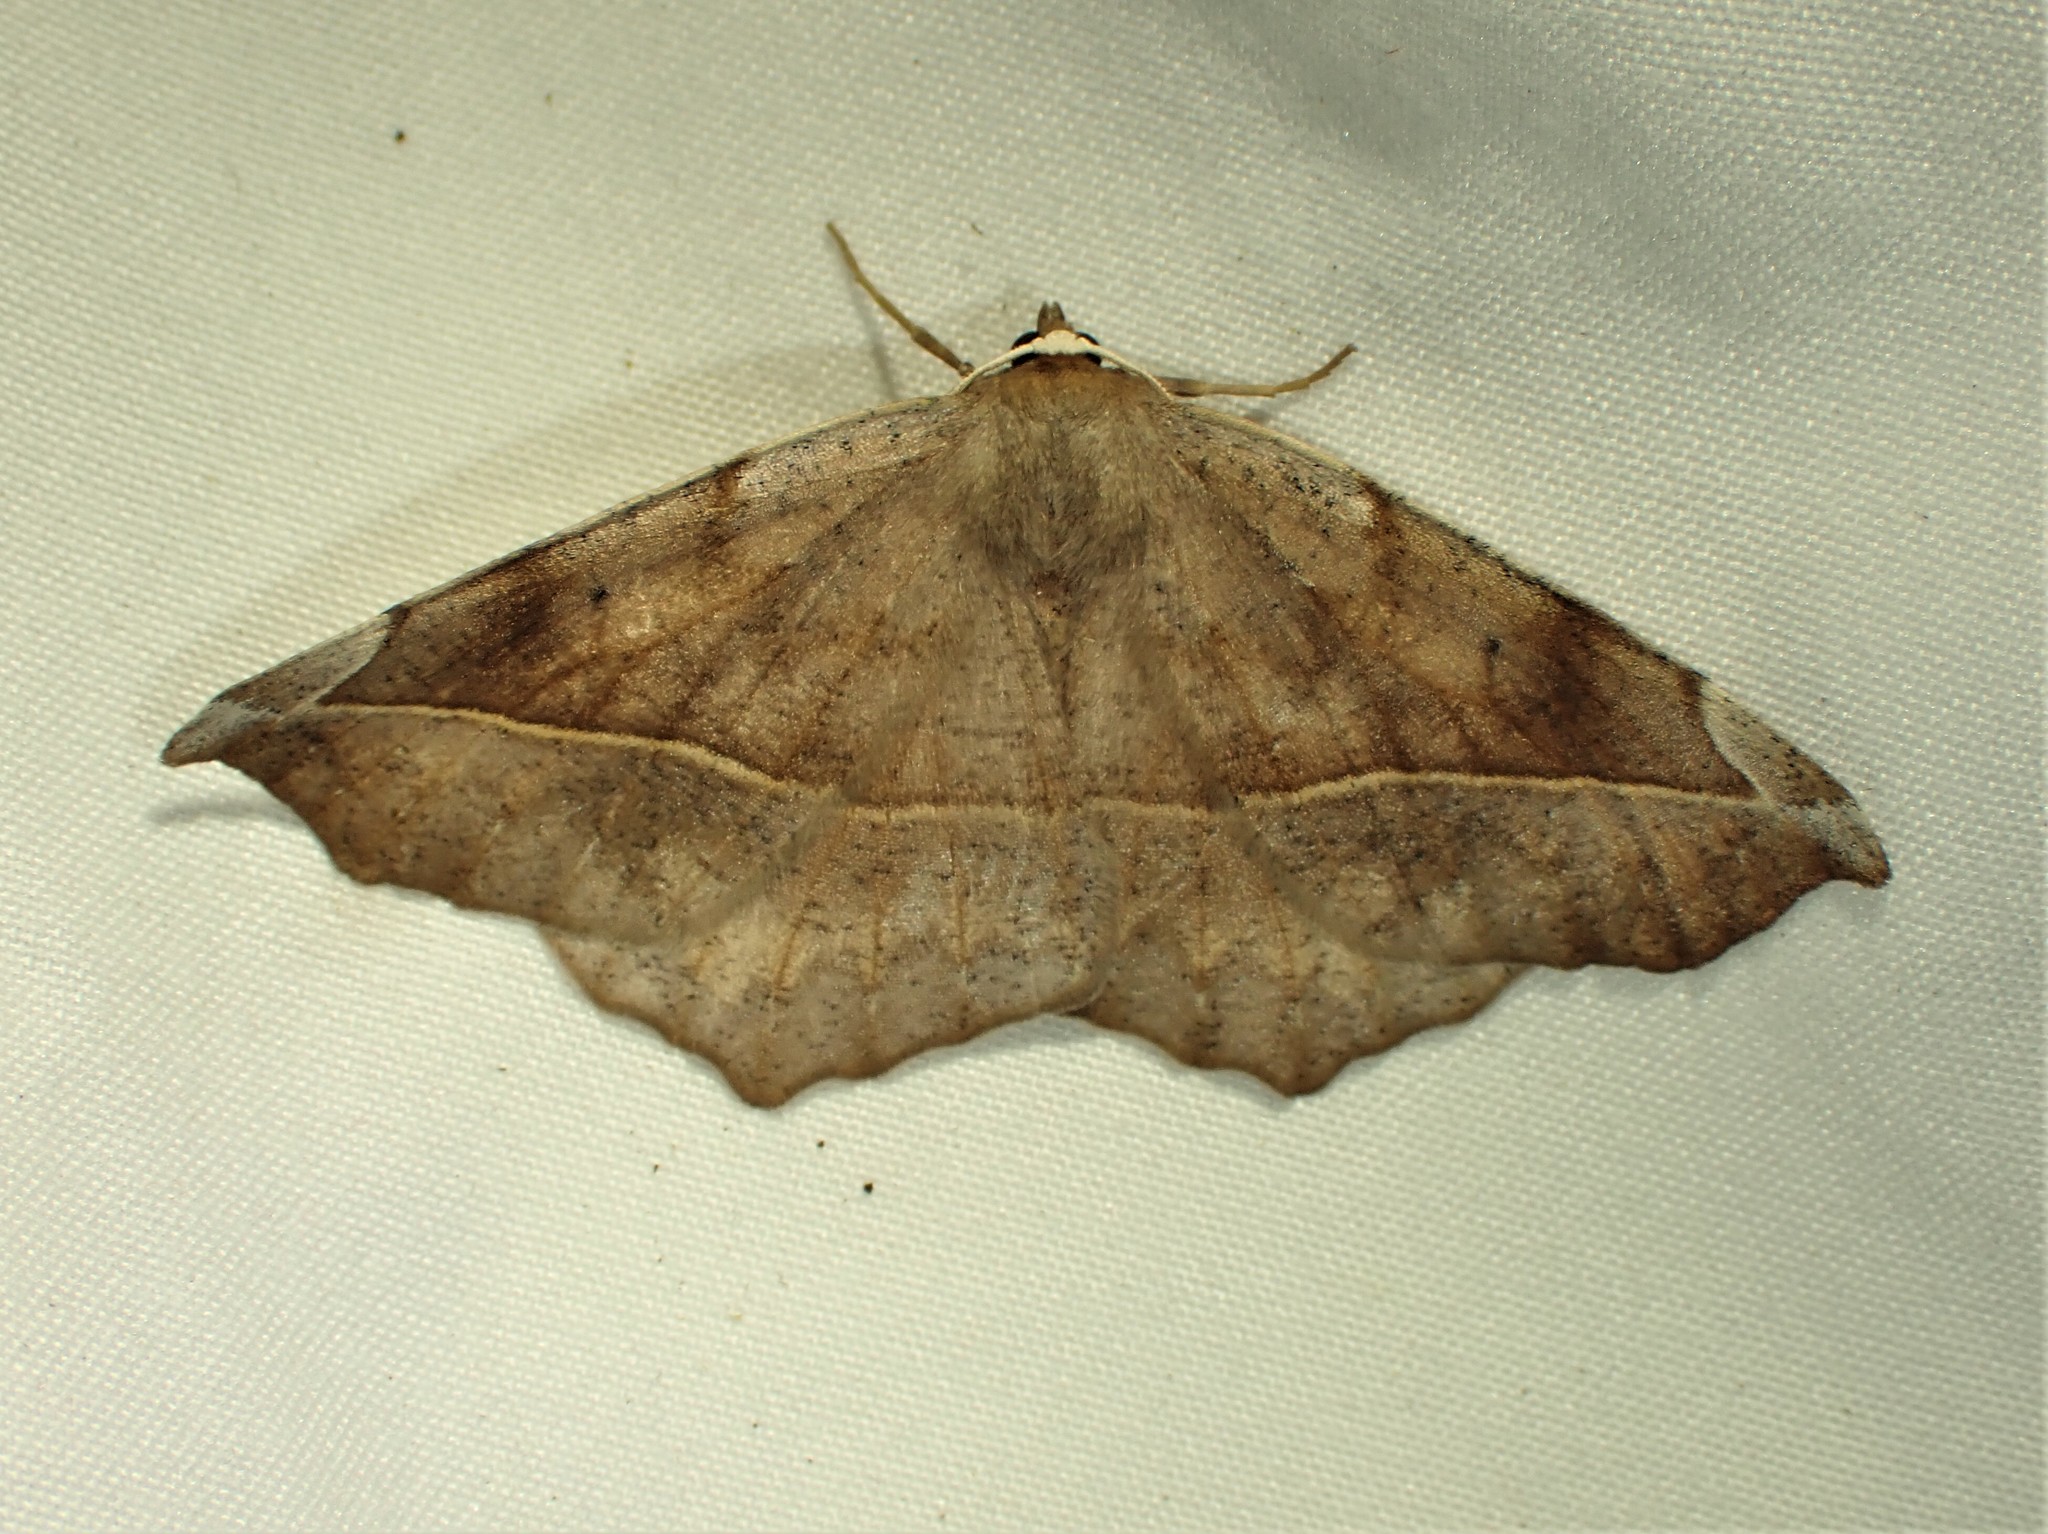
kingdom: Animalia
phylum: Arthropoda
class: Insecta
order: Lepidoptera
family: Geometridae
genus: Eutrapela
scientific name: Eutrapela clemataria
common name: Curved-toothed geometer
